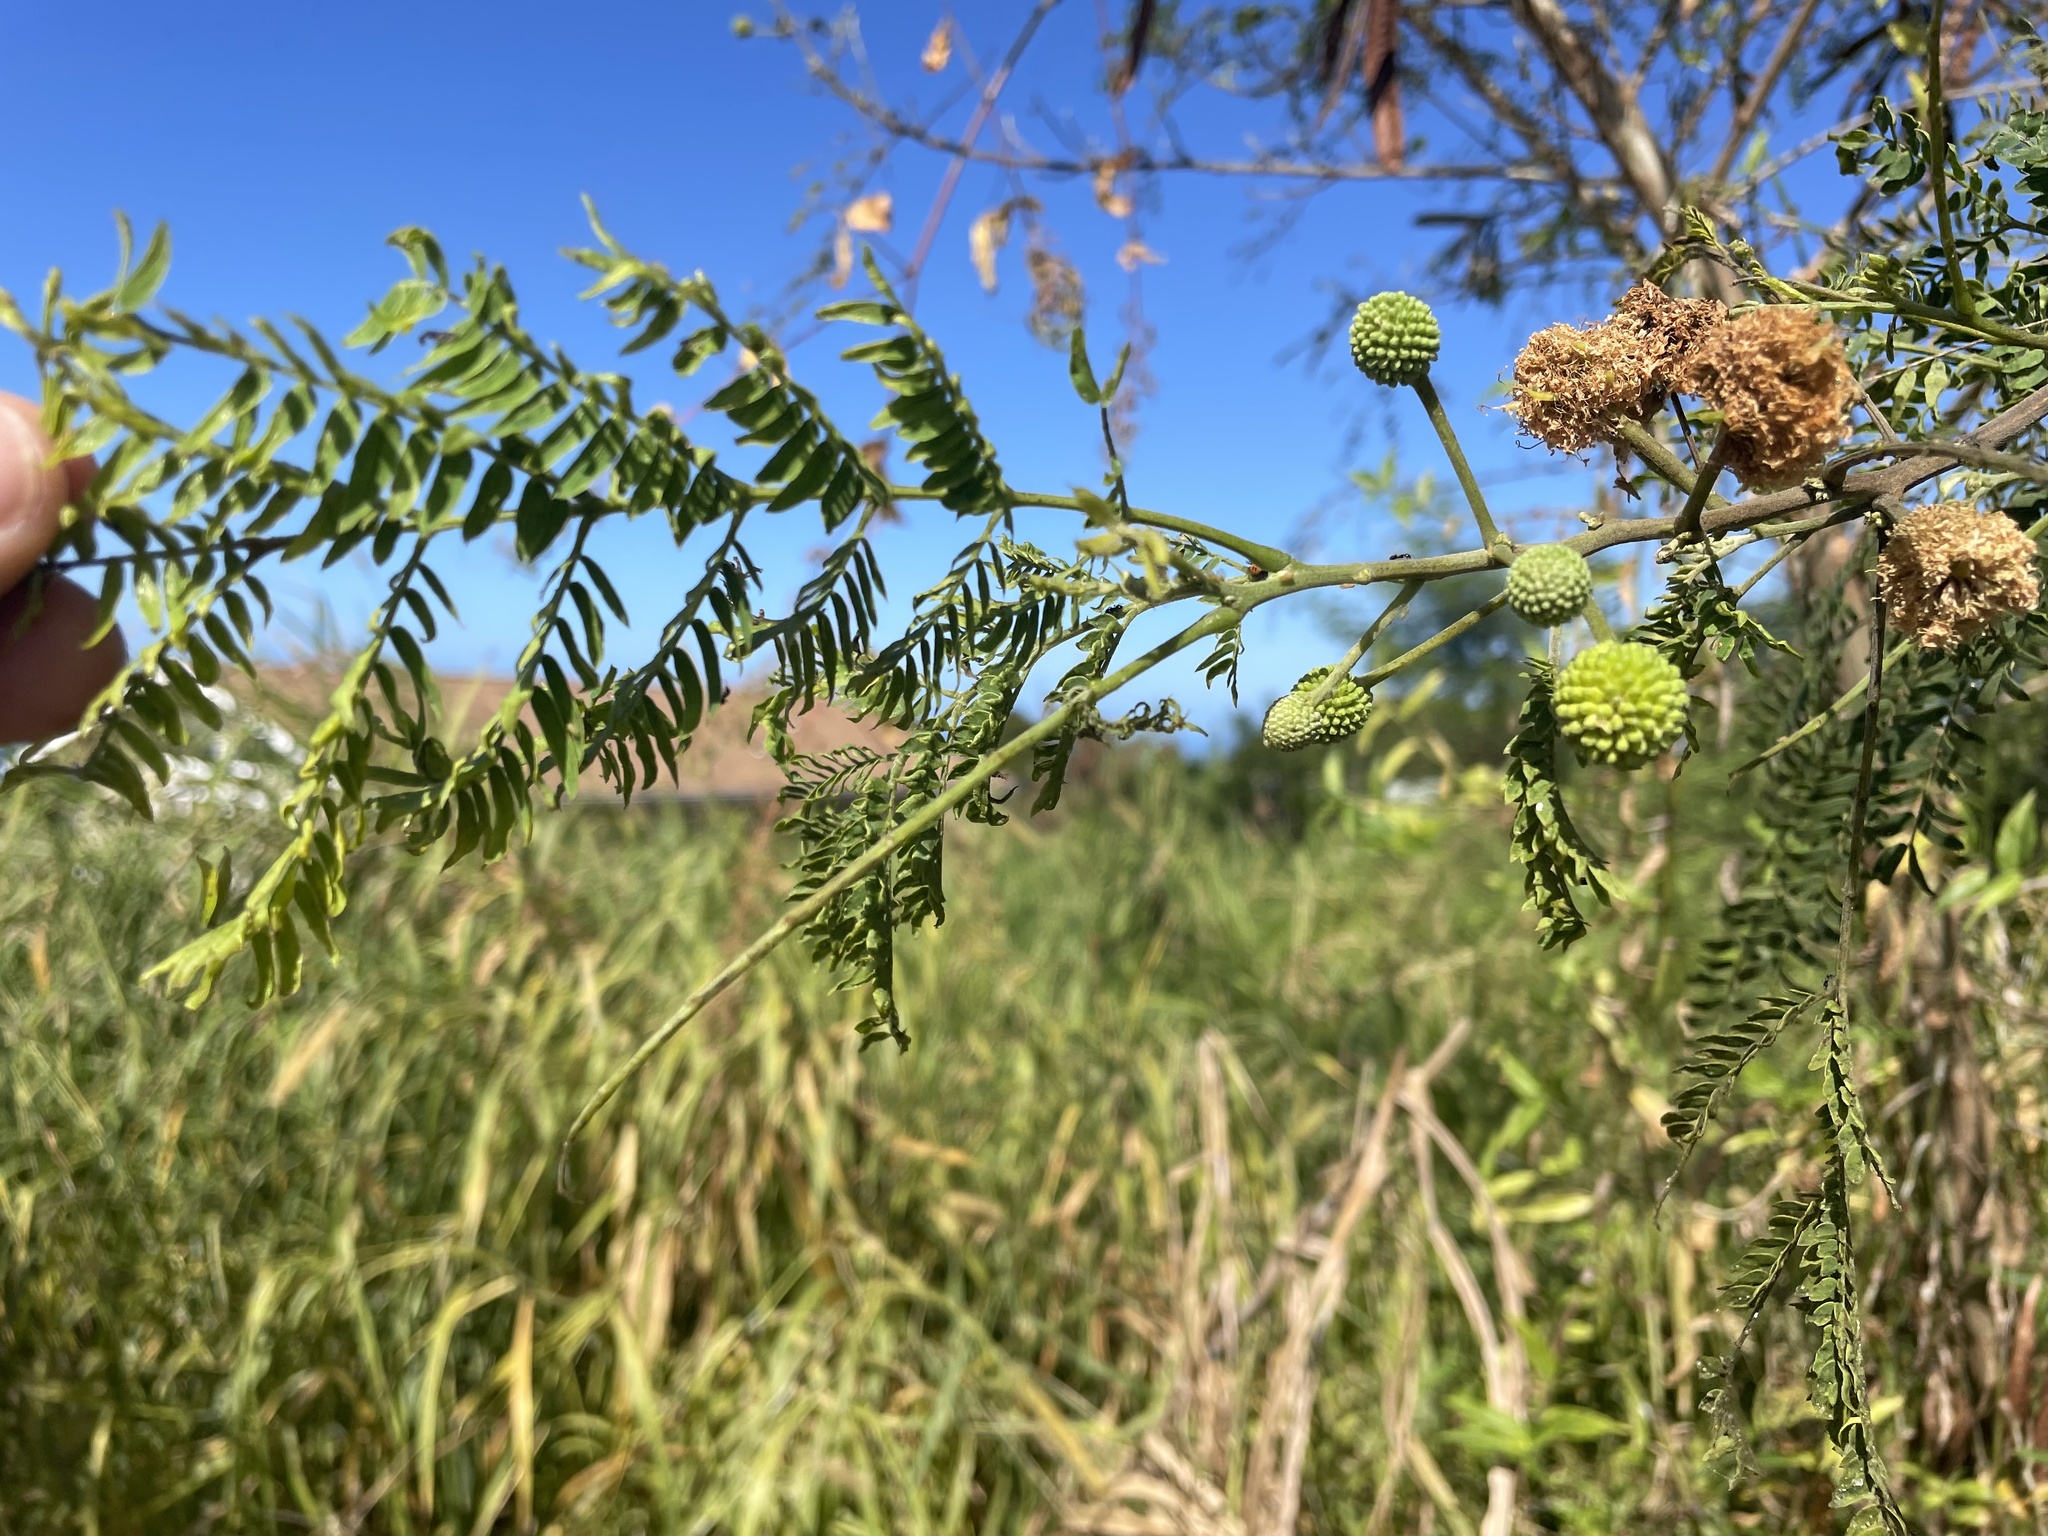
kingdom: Plantae
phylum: Tracheophyta
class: Magnoliopsida
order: Fabales
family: Fabaceae
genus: Leucaena
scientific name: Leucaena leucocephala
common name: White leadtree
